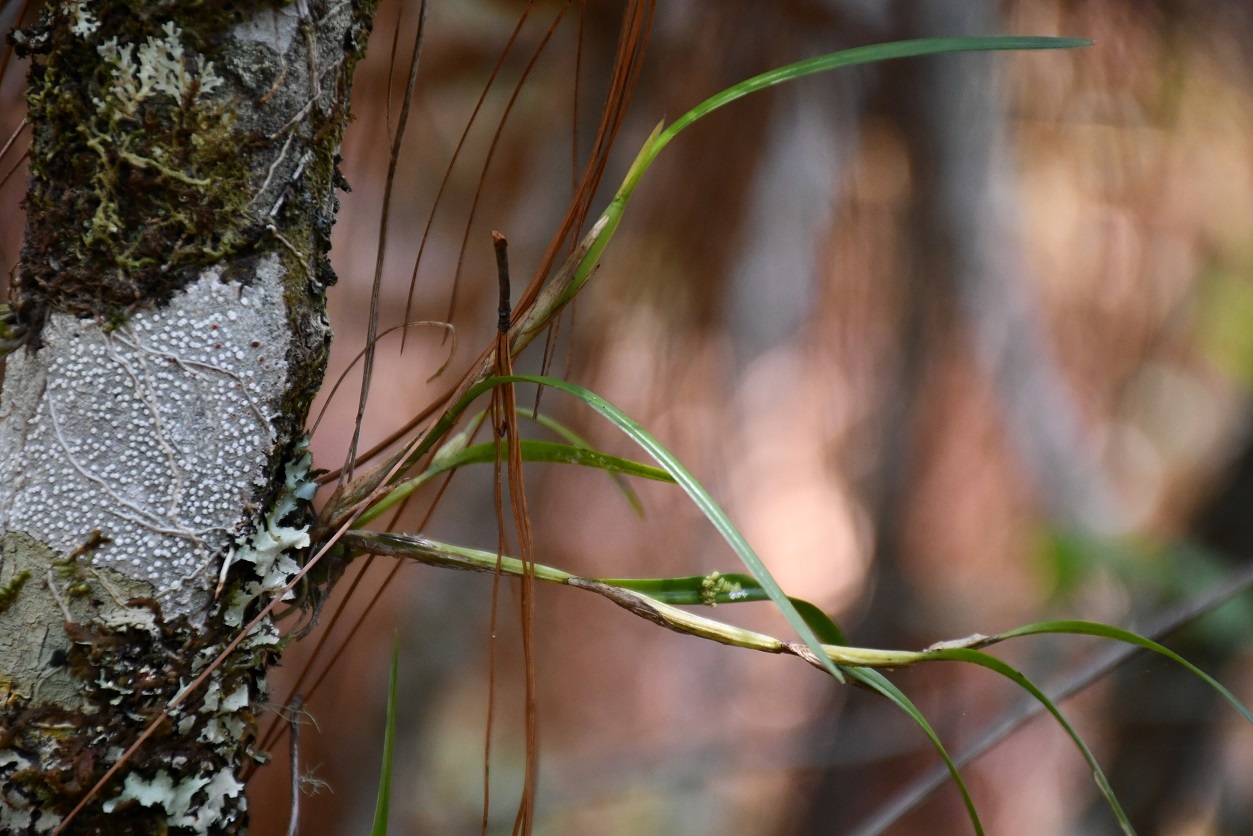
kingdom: Plantae
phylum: Tracheophyta
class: Liliopsida
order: Asparagales
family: Orchidaceae
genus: Scaphyglottis
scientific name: Scaphyglottis fasciculata
